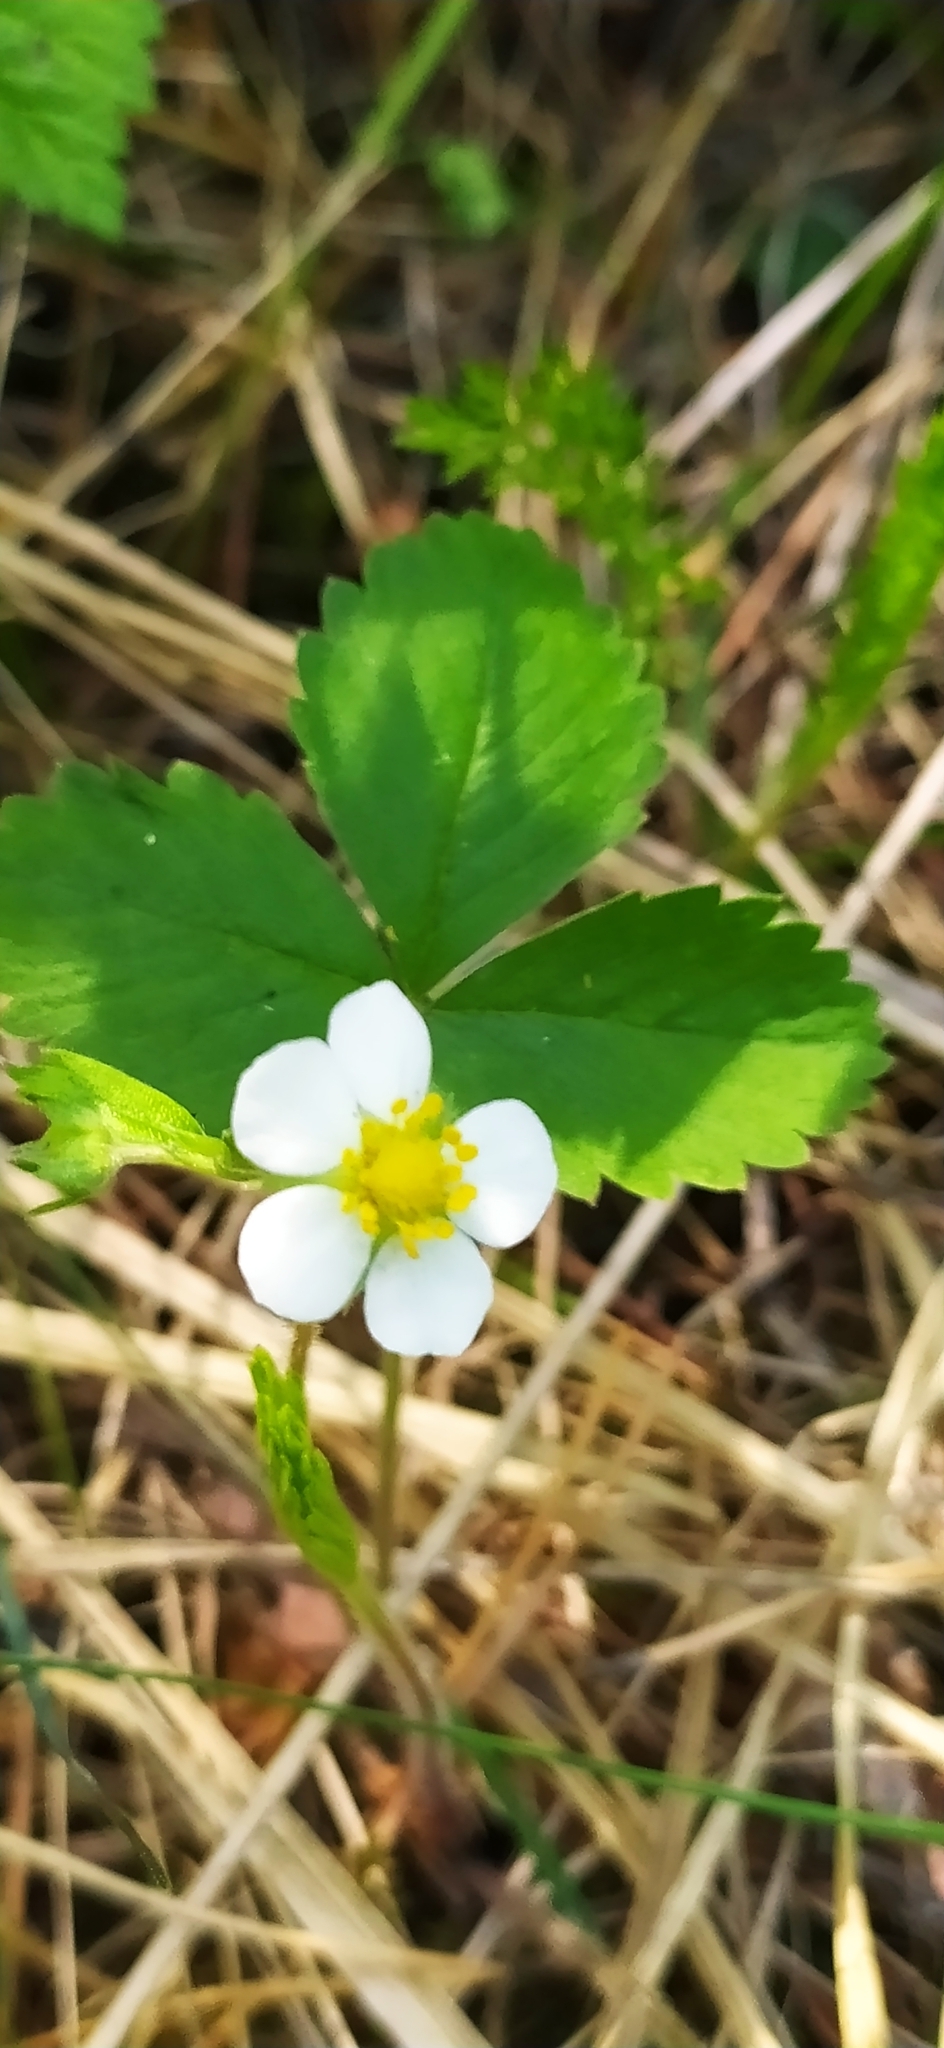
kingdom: Plantae
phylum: Tracheophyta
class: Magnoliopsida
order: Rosales
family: Rosaceae
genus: Fragaria
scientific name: Fragaria vesca
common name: Wild strawberry
